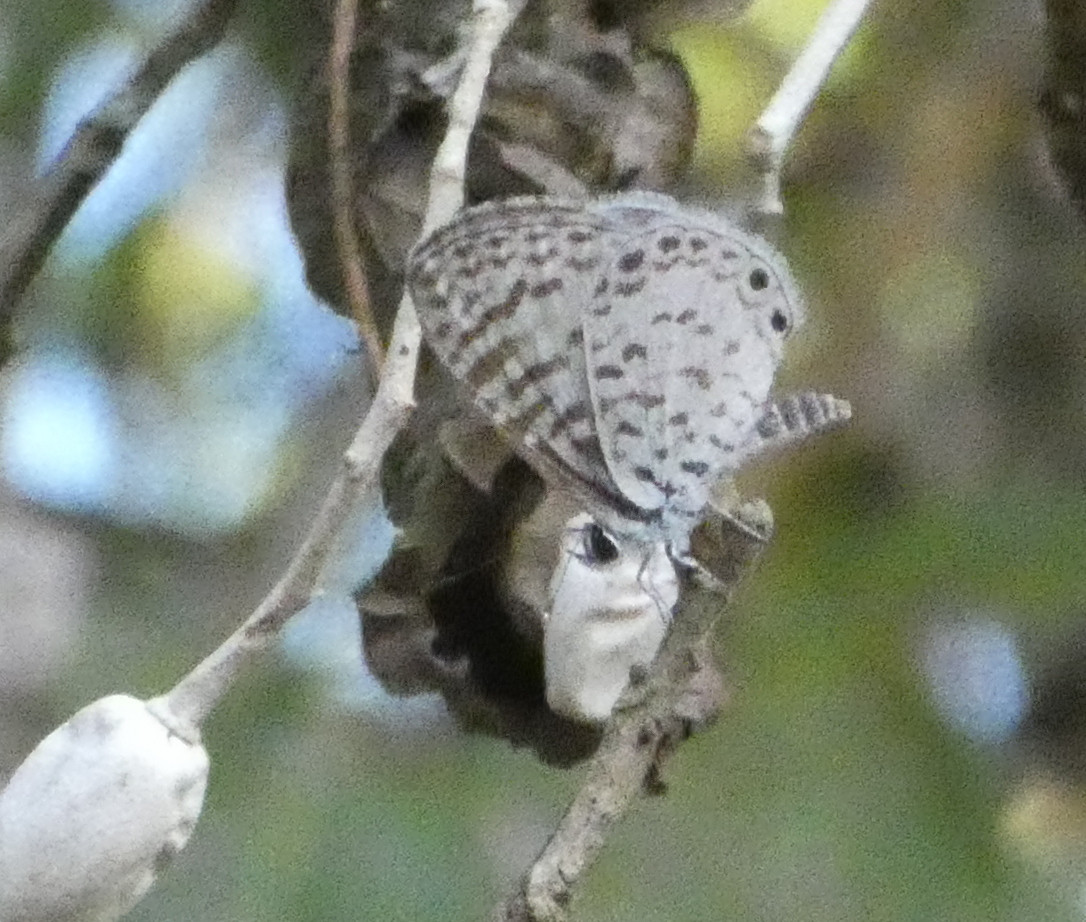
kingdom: Animalia
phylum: Arthropoda
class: Insecta
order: Lepidoptera
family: Lycaenidae
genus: Leptotes
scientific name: Leptotes cassius
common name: Cassius blue
